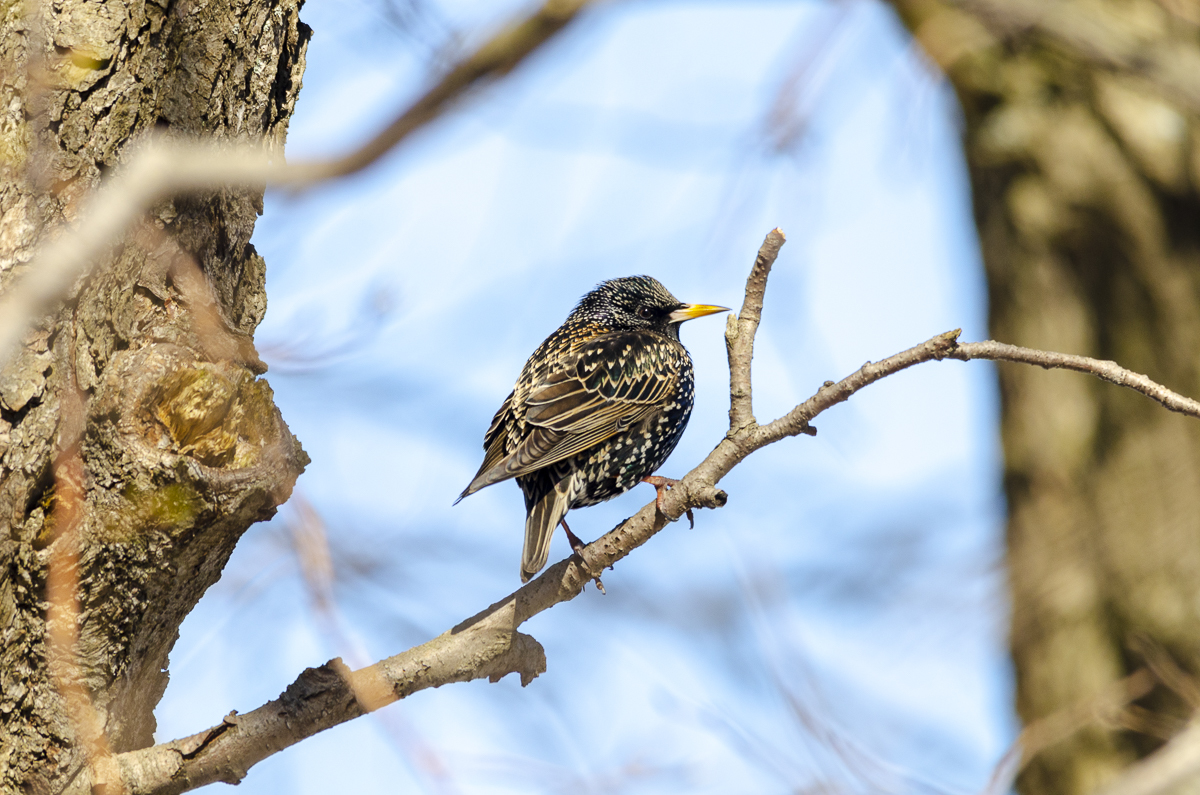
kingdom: Animalia
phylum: Chordata
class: Aves
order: Passeriformes
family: Sturnidae
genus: Sturnus
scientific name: Sturnus vulgaris
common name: Common starling
